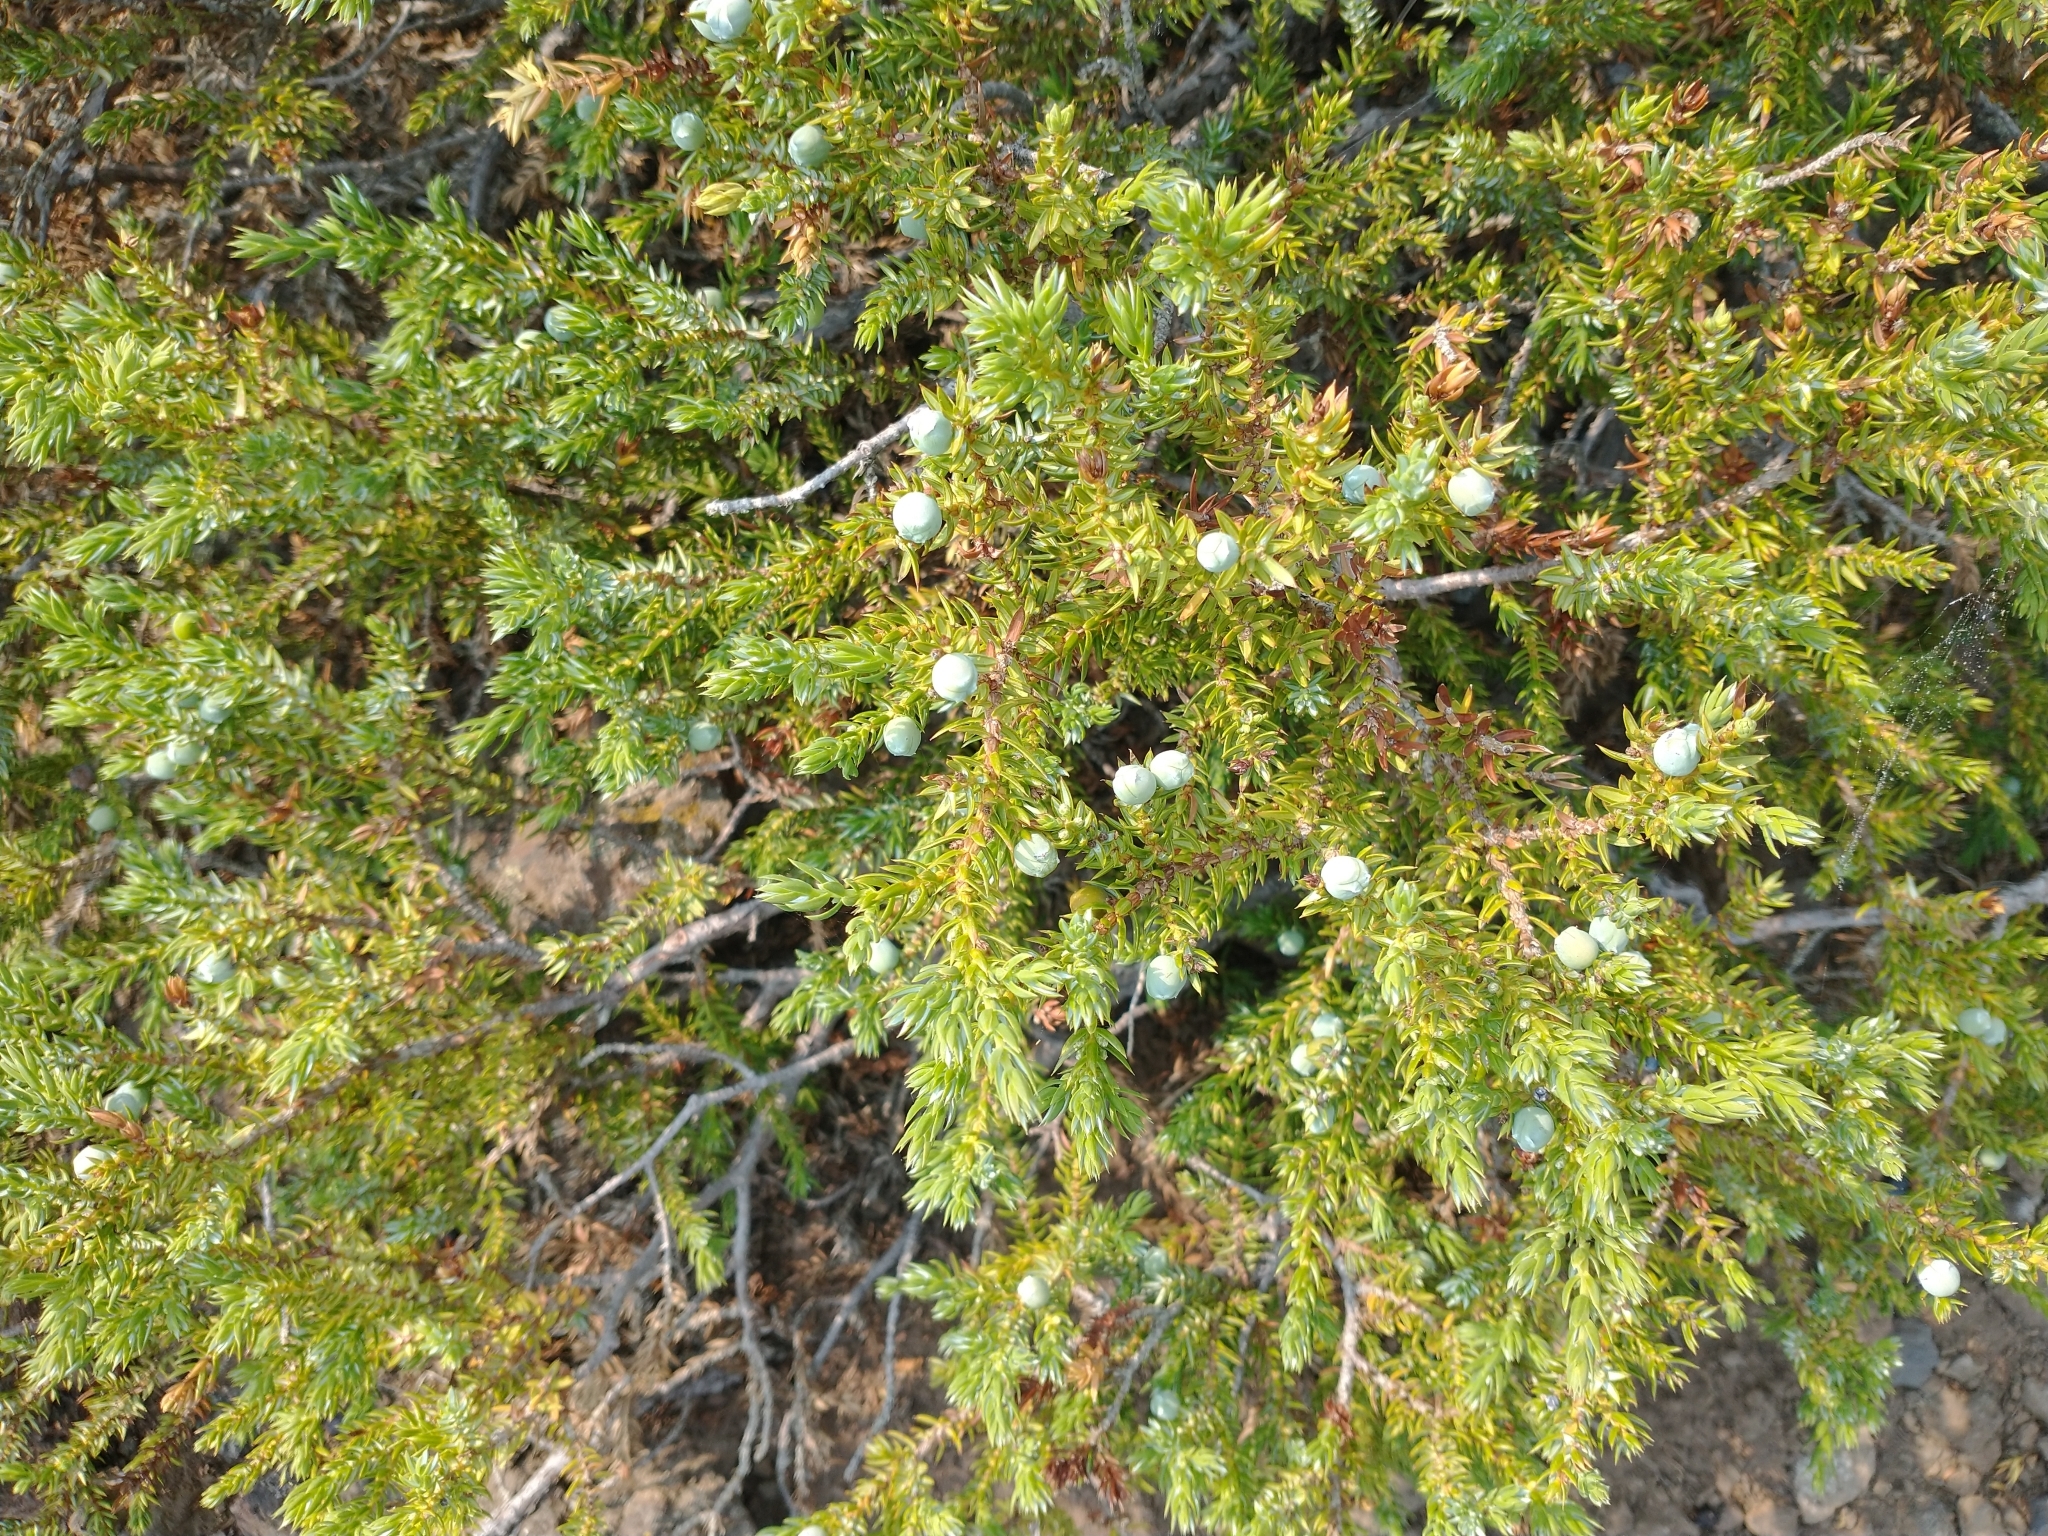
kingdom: Plantae
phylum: Tracheophyta
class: Pinopsida
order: Pinales
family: Cupressaceae
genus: Juniperus
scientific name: Juniperus communis
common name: Common juniper
